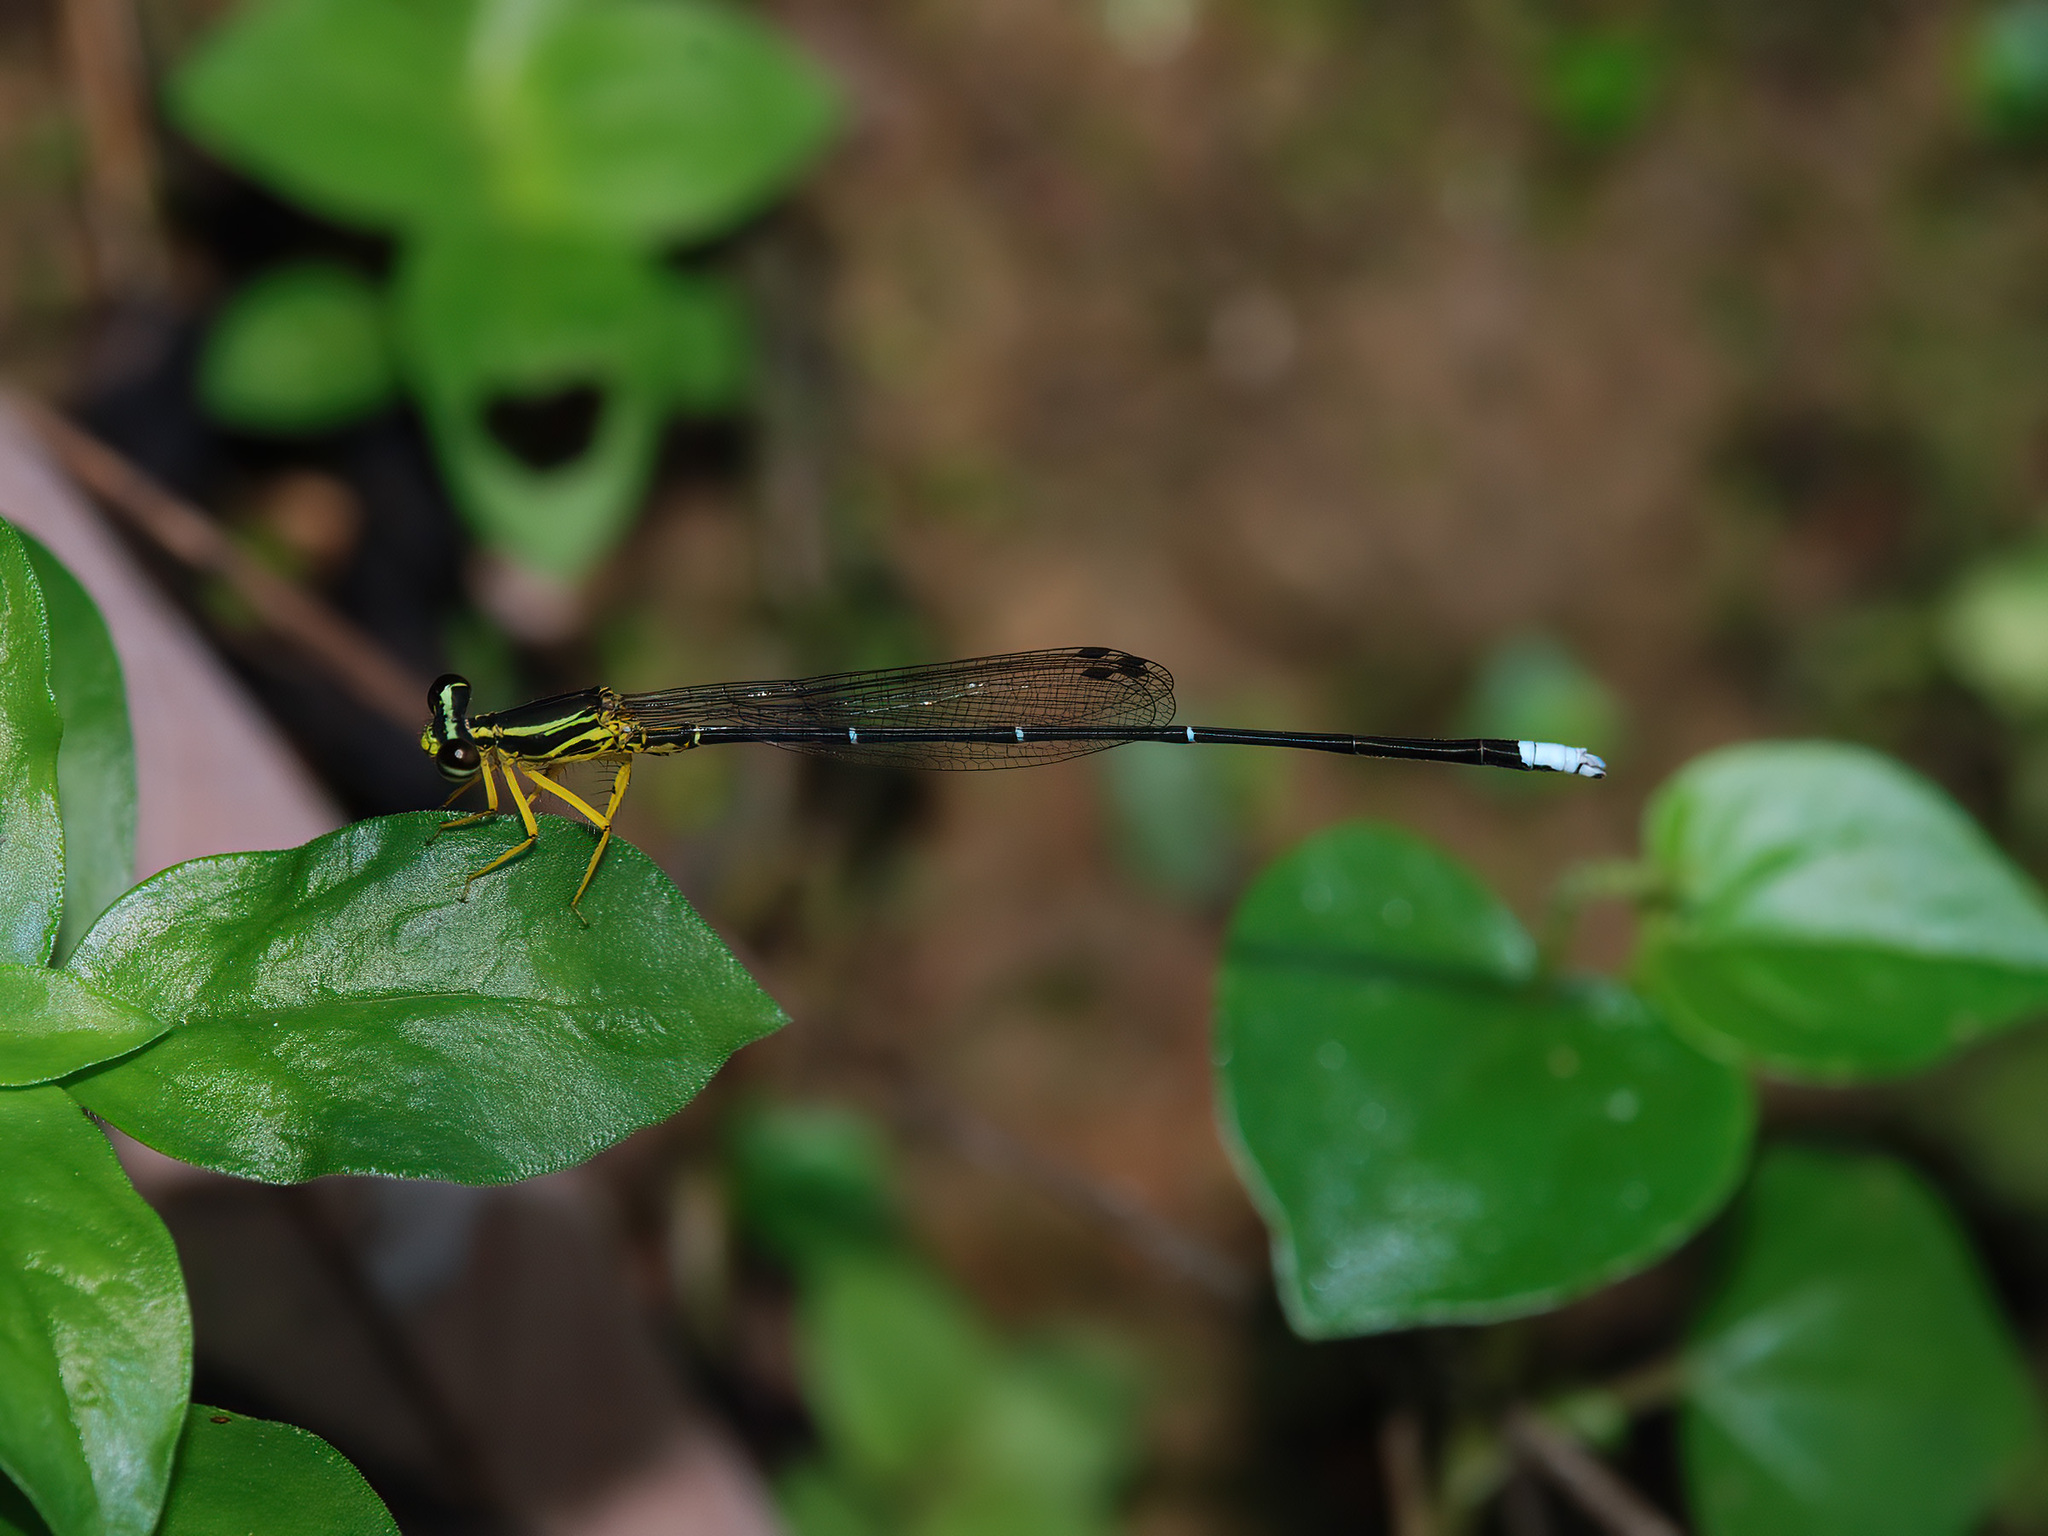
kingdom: Animalia
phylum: Arthropoda
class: Insecta
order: Odonata
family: Platycnemididae
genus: Copera
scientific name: Copera marginipes
